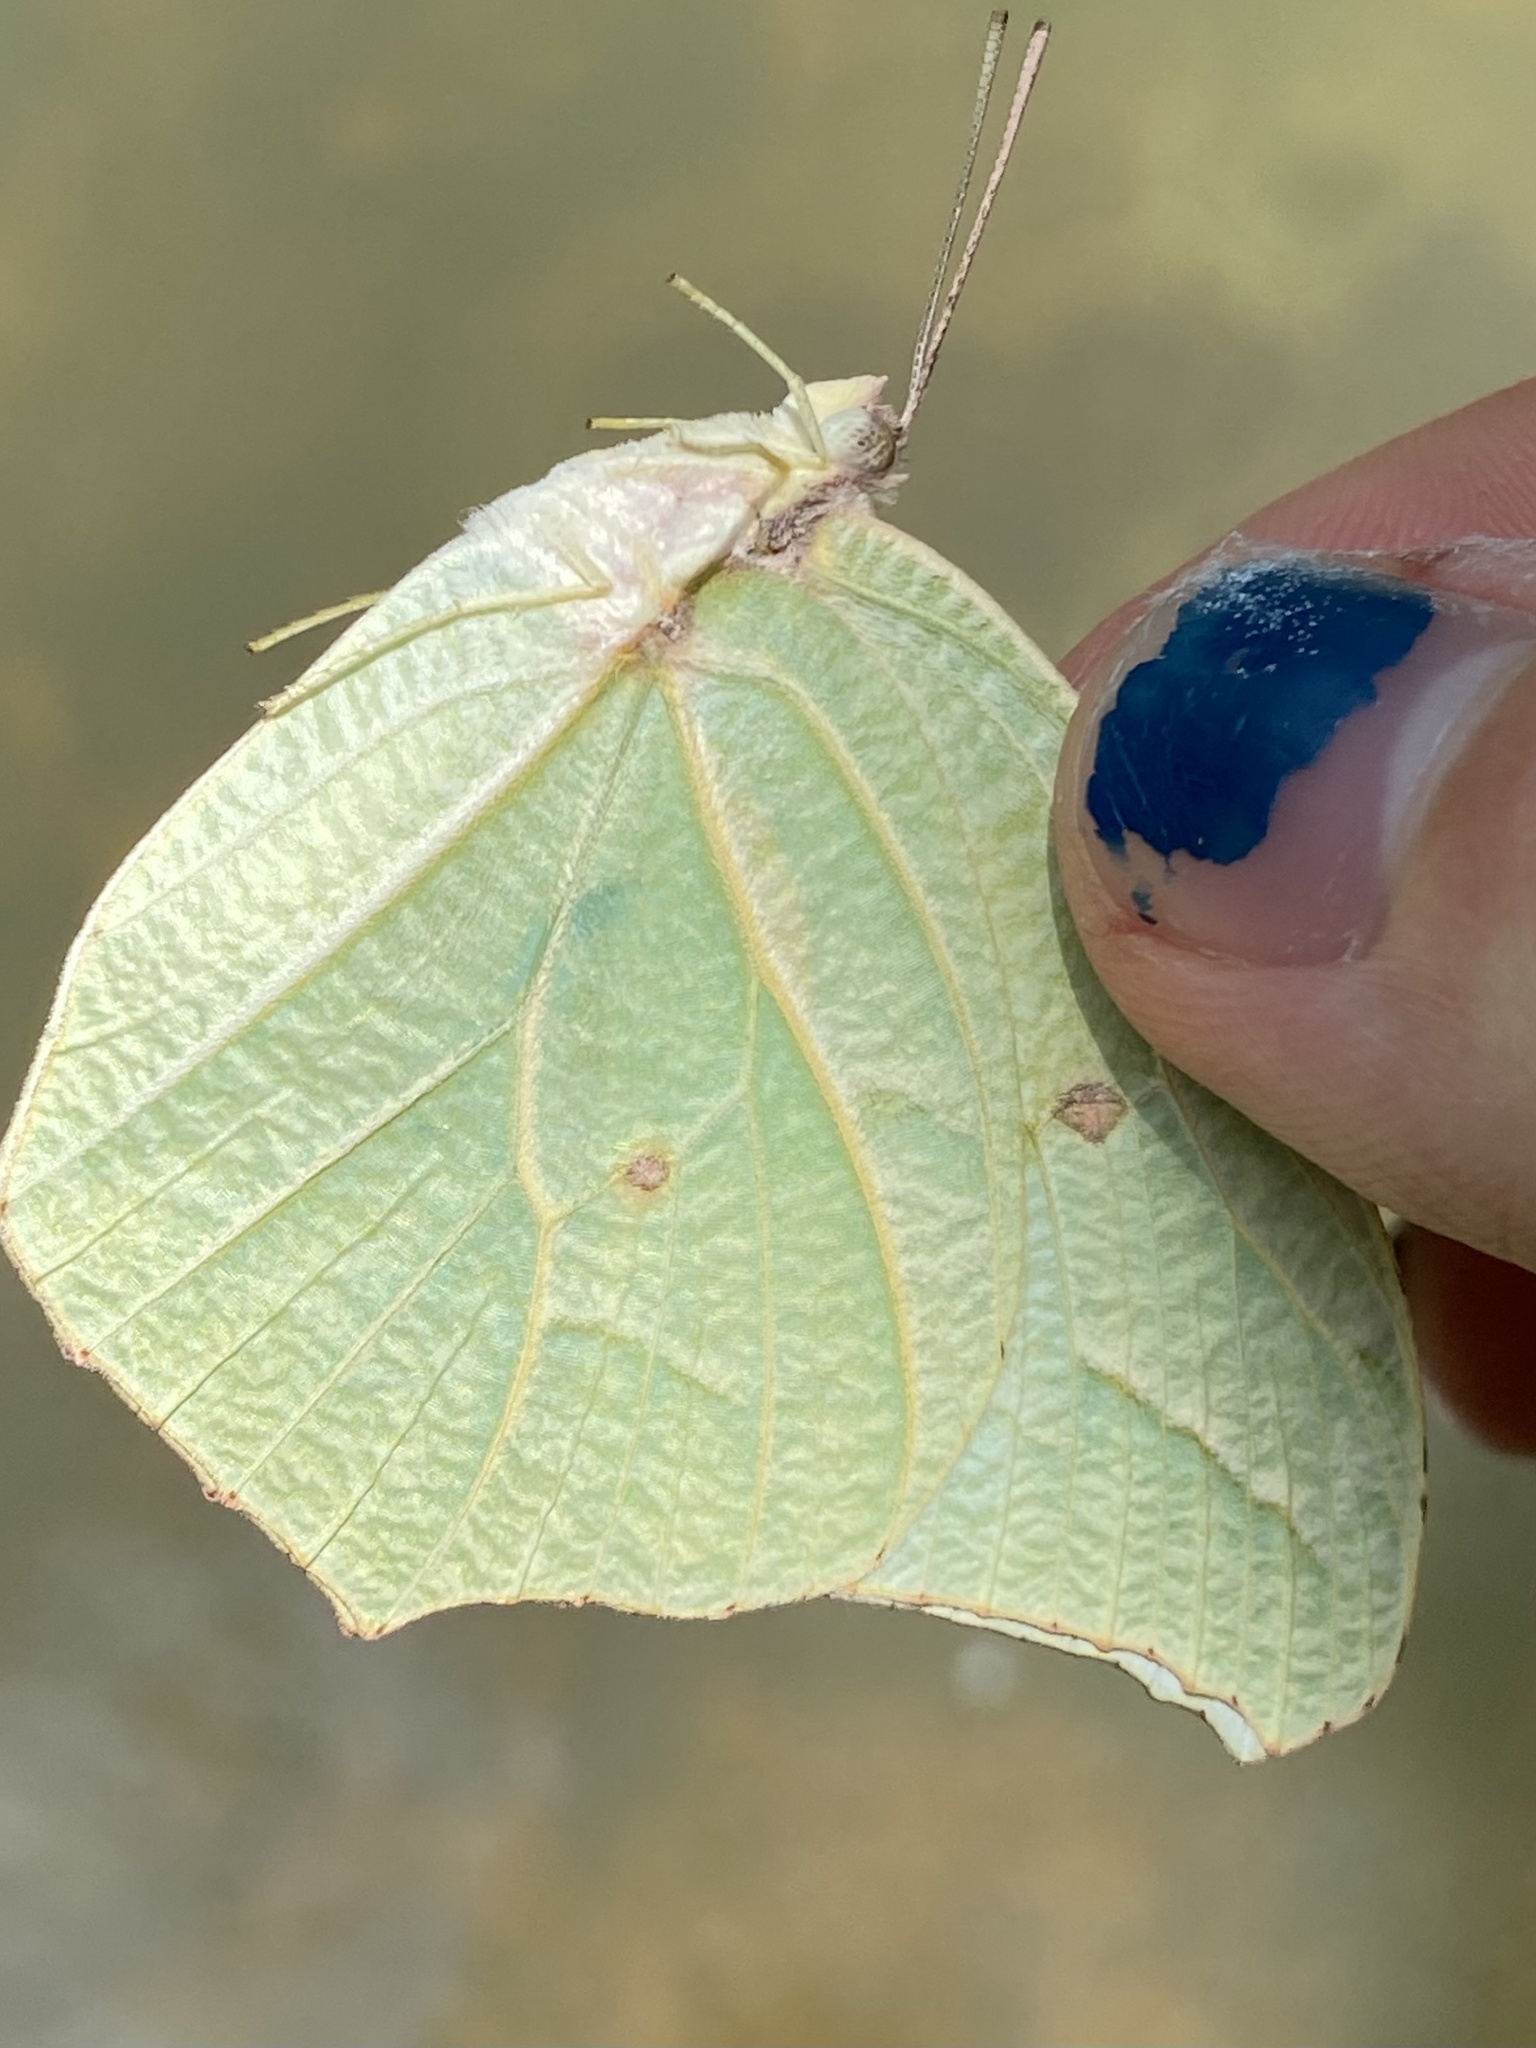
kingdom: Animalia
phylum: Arthropoda
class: Insecta
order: Lepidoptera
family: Pieridae
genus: Anteos
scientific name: Anteos clorinde
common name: White angled sulphur
